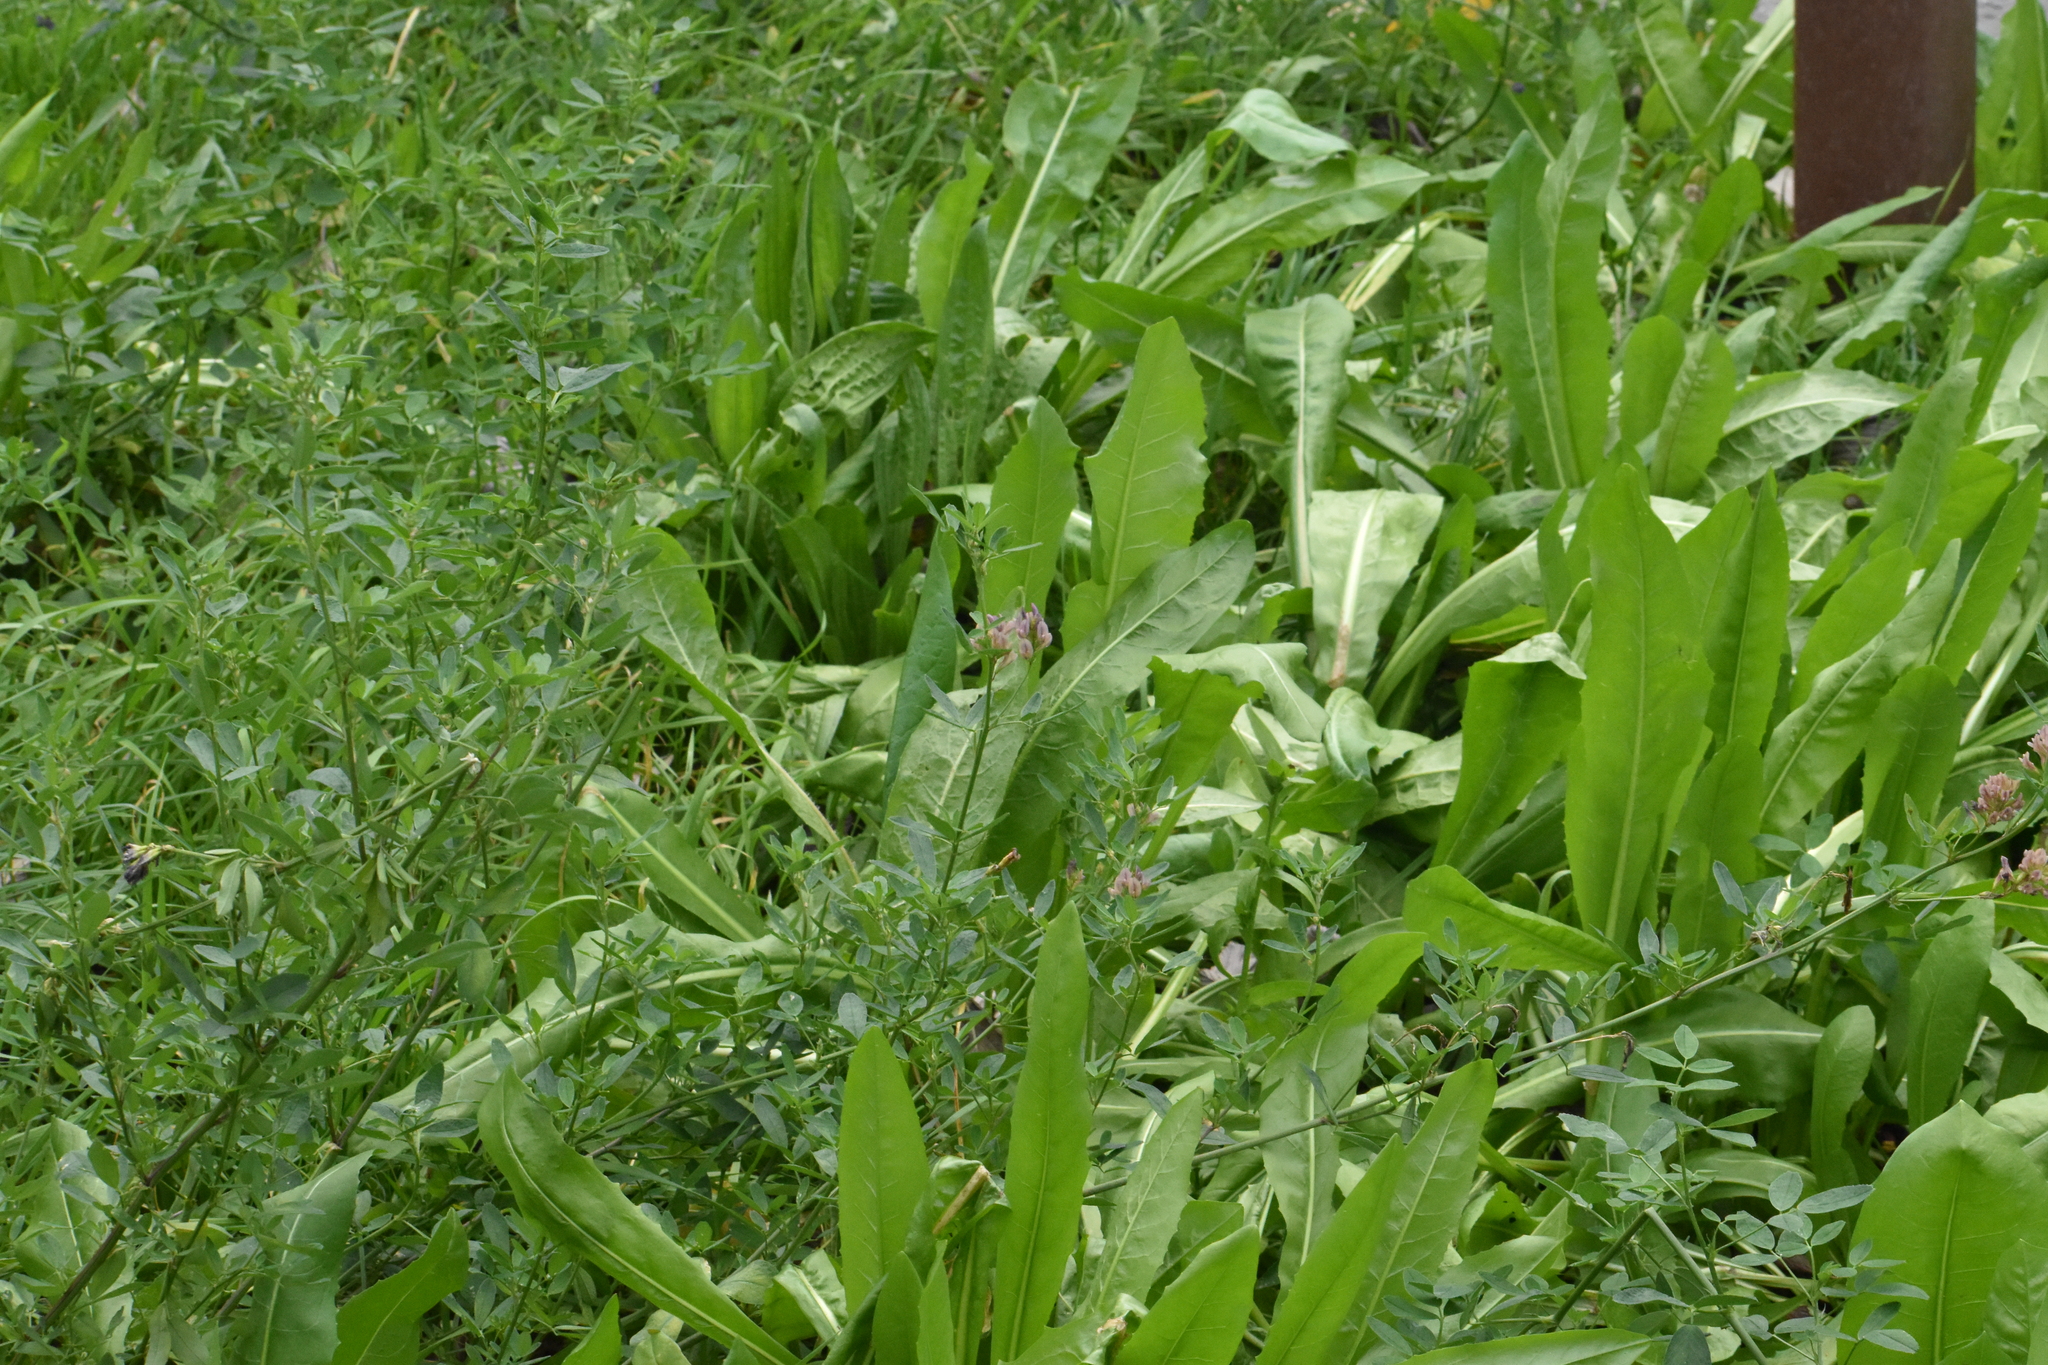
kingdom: Plantae
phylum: Tracheophyta
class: Magnoliopsida
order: Fabales
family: Fabaceae
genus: Medicago
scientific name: Medicago sativa
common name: Alfalfa
